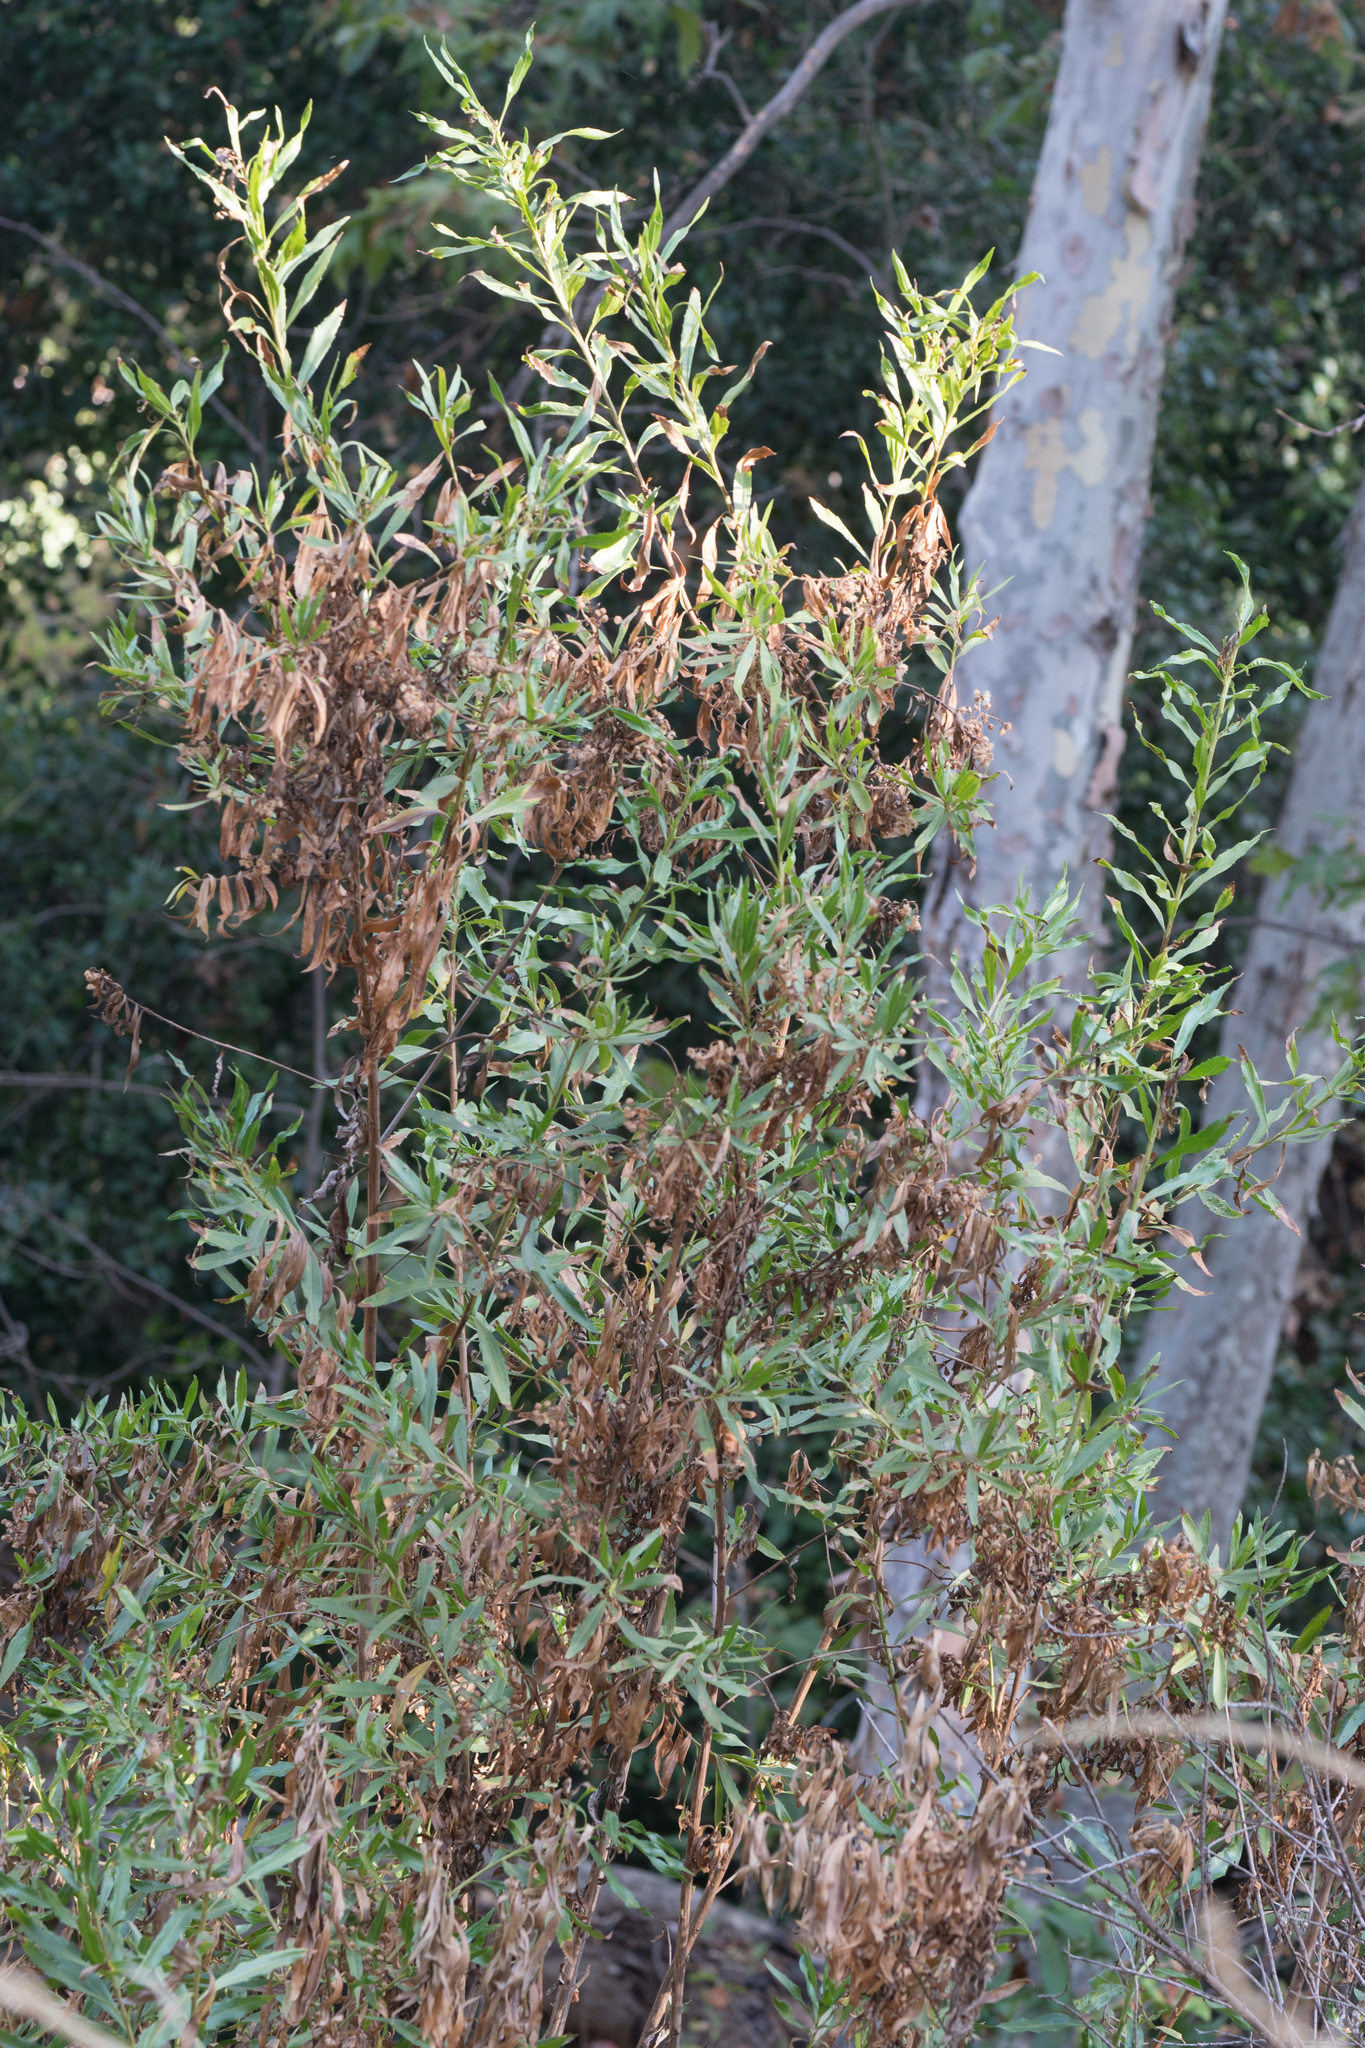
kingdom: Plantae
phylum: Tracheophyta
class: Magnoliopsida
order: Asterales
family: Asteraceae
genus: Baccharis
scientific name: Baccharis salicifolia
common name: Sticky baccharis
